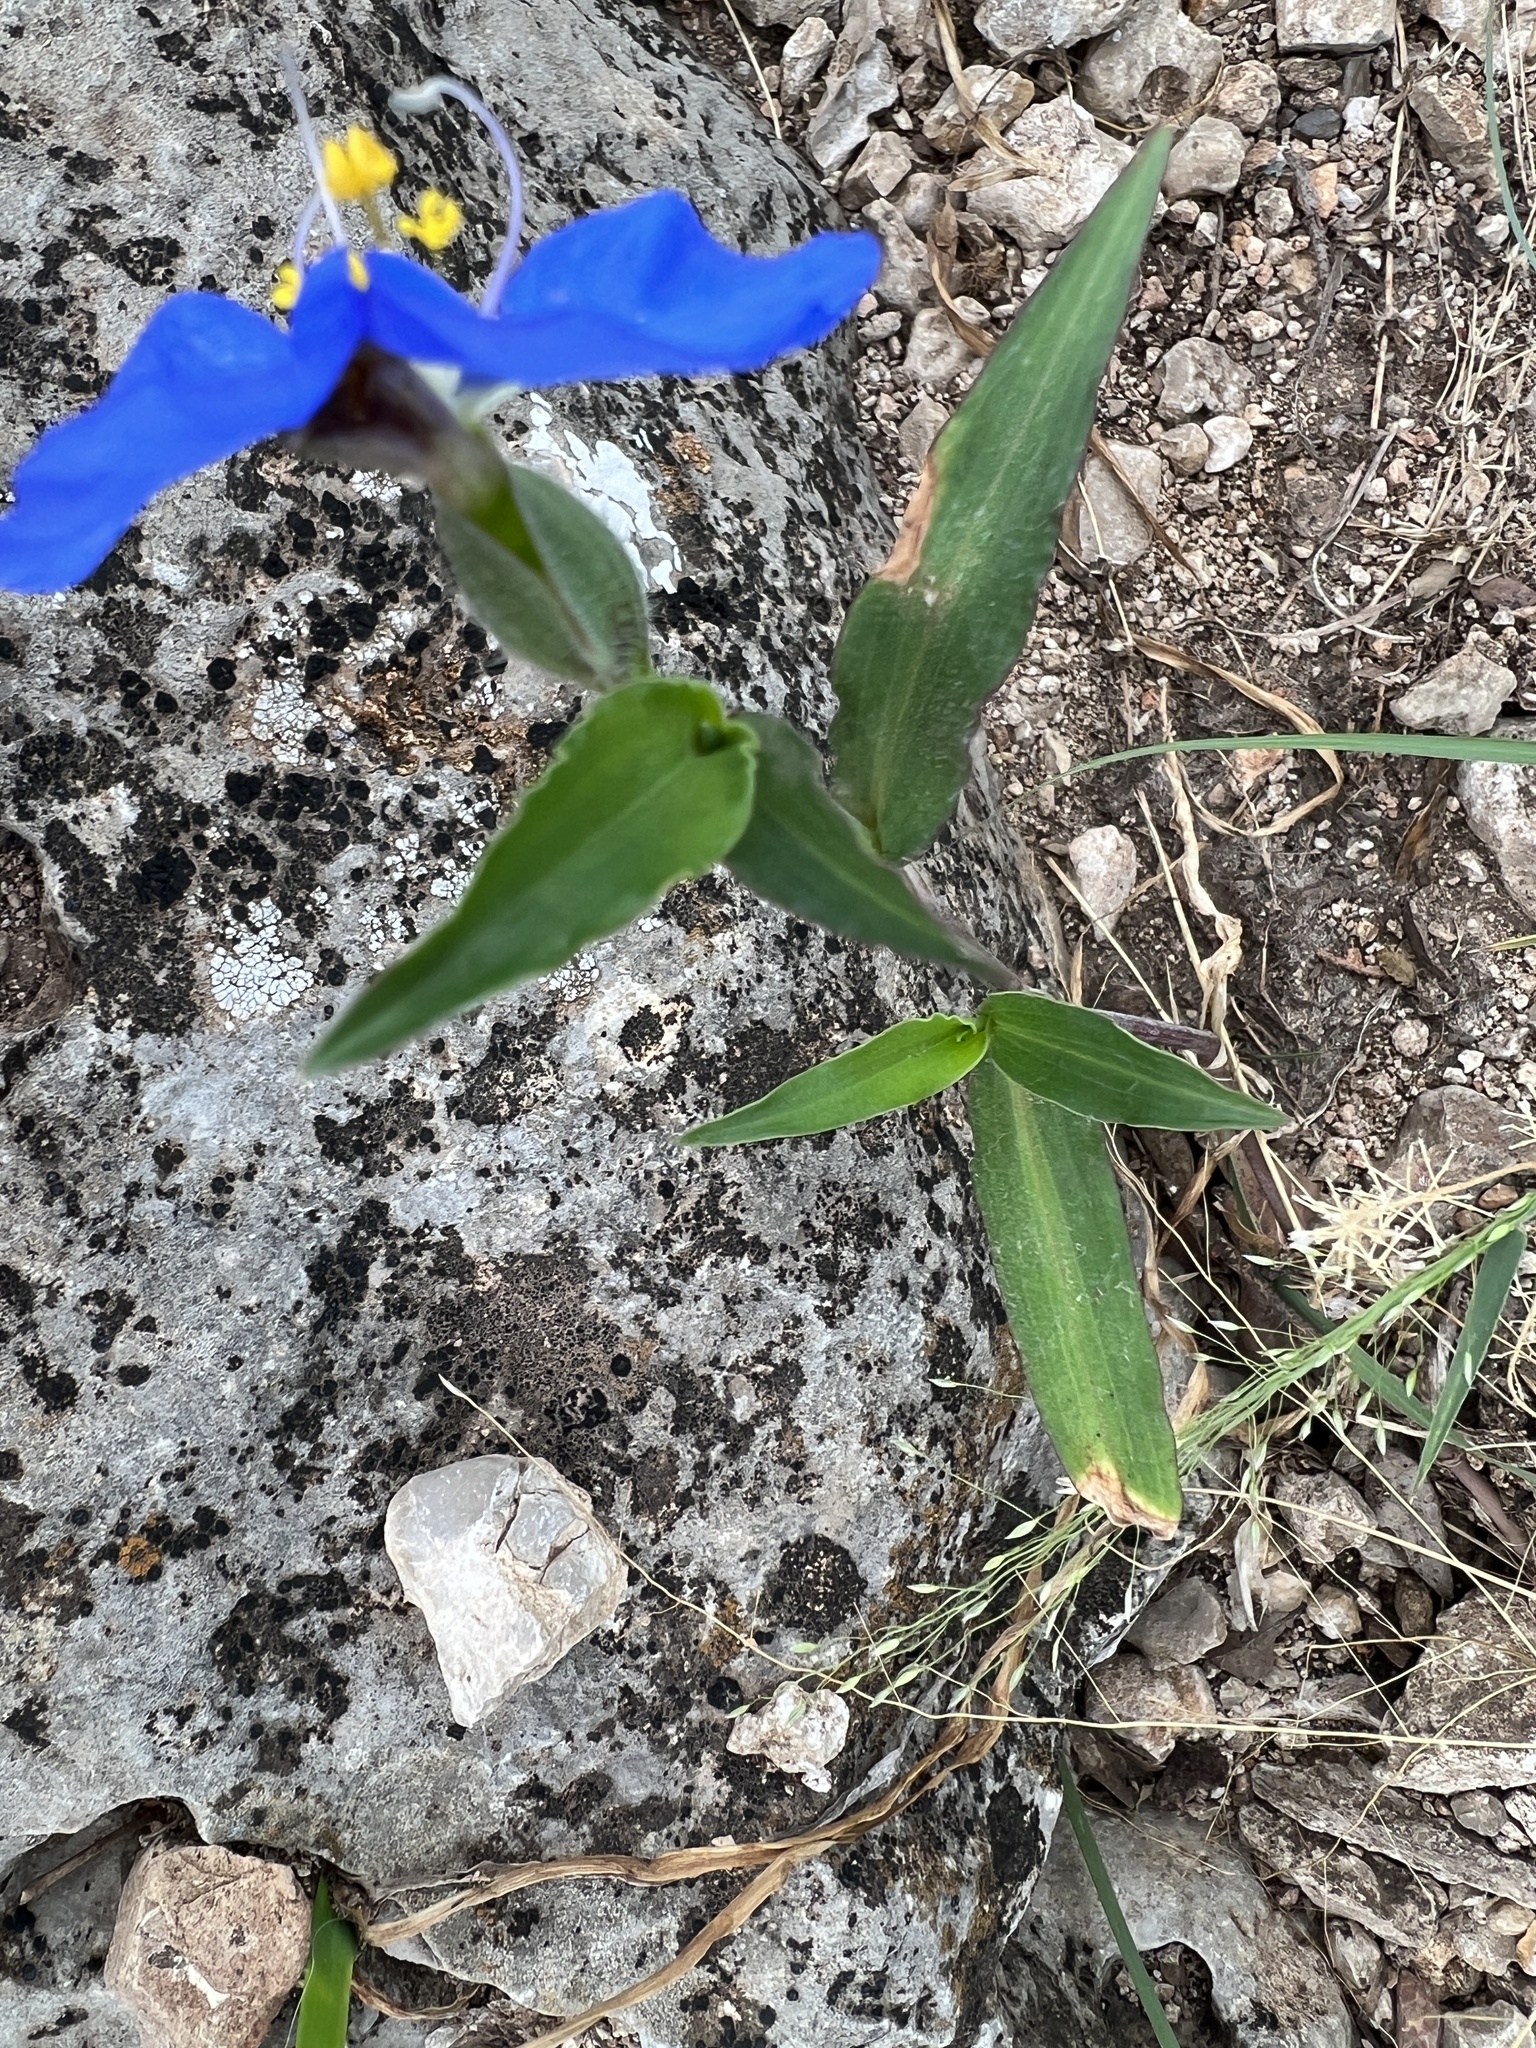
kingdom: Plantae
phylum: Tracheophyta
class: Liliopsida
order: Commelinales
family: Commelinaceae
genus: Commelina
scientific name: Commelina erecta
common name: Blousel blommetjie
